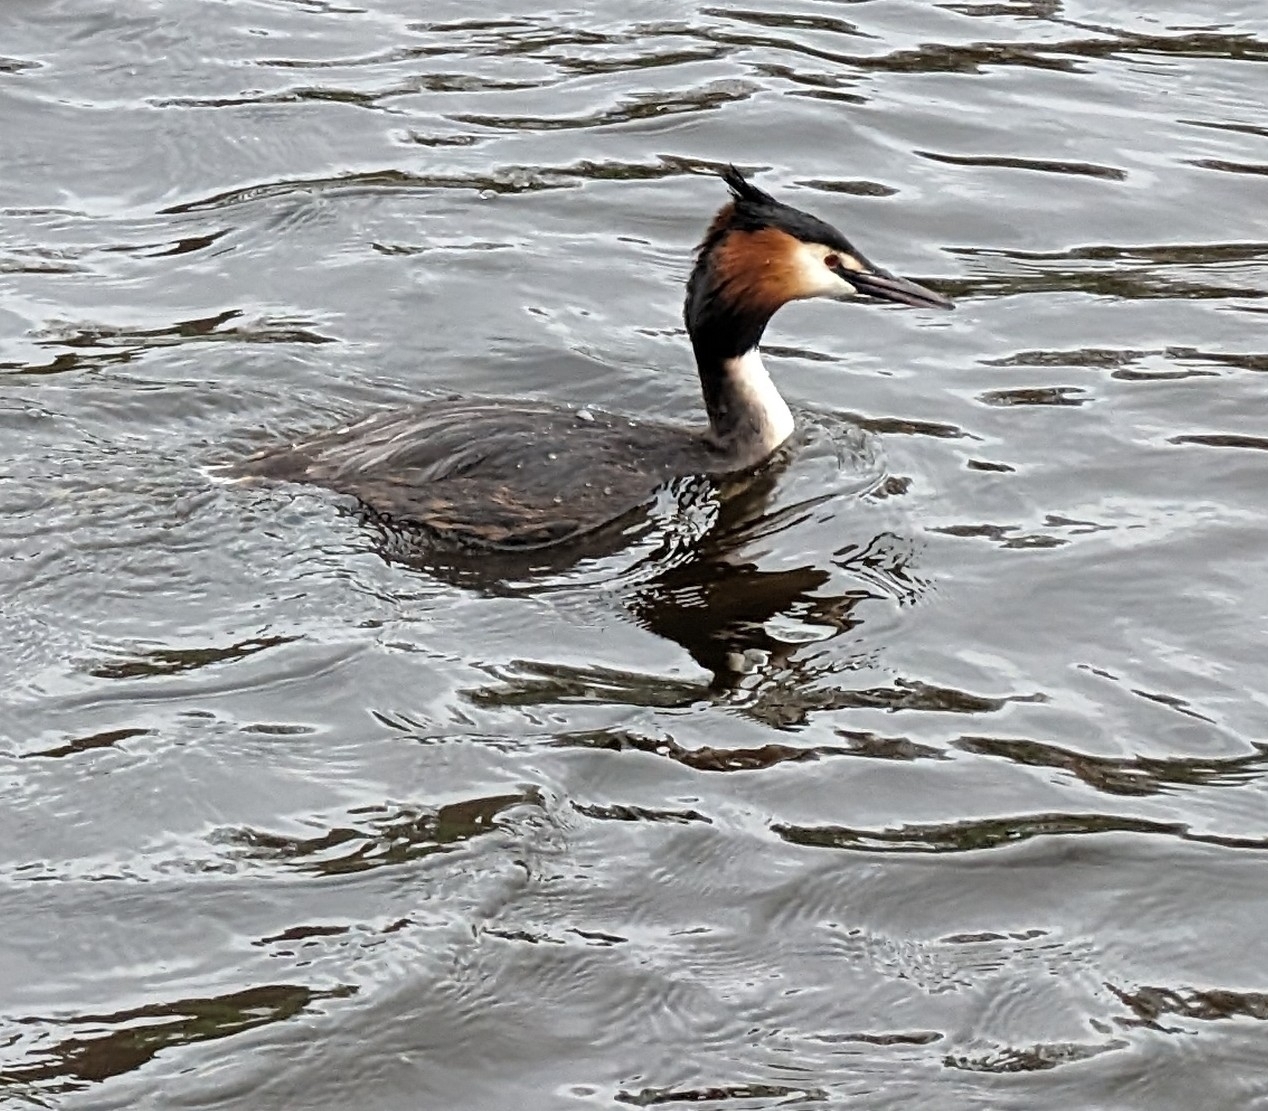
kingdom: Animalia
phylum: Chordata
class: Aves
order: Podicipediformes
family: Podicipedidae
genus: Podiceps
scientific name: Podiceps cristatus
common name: Great crested grebe
